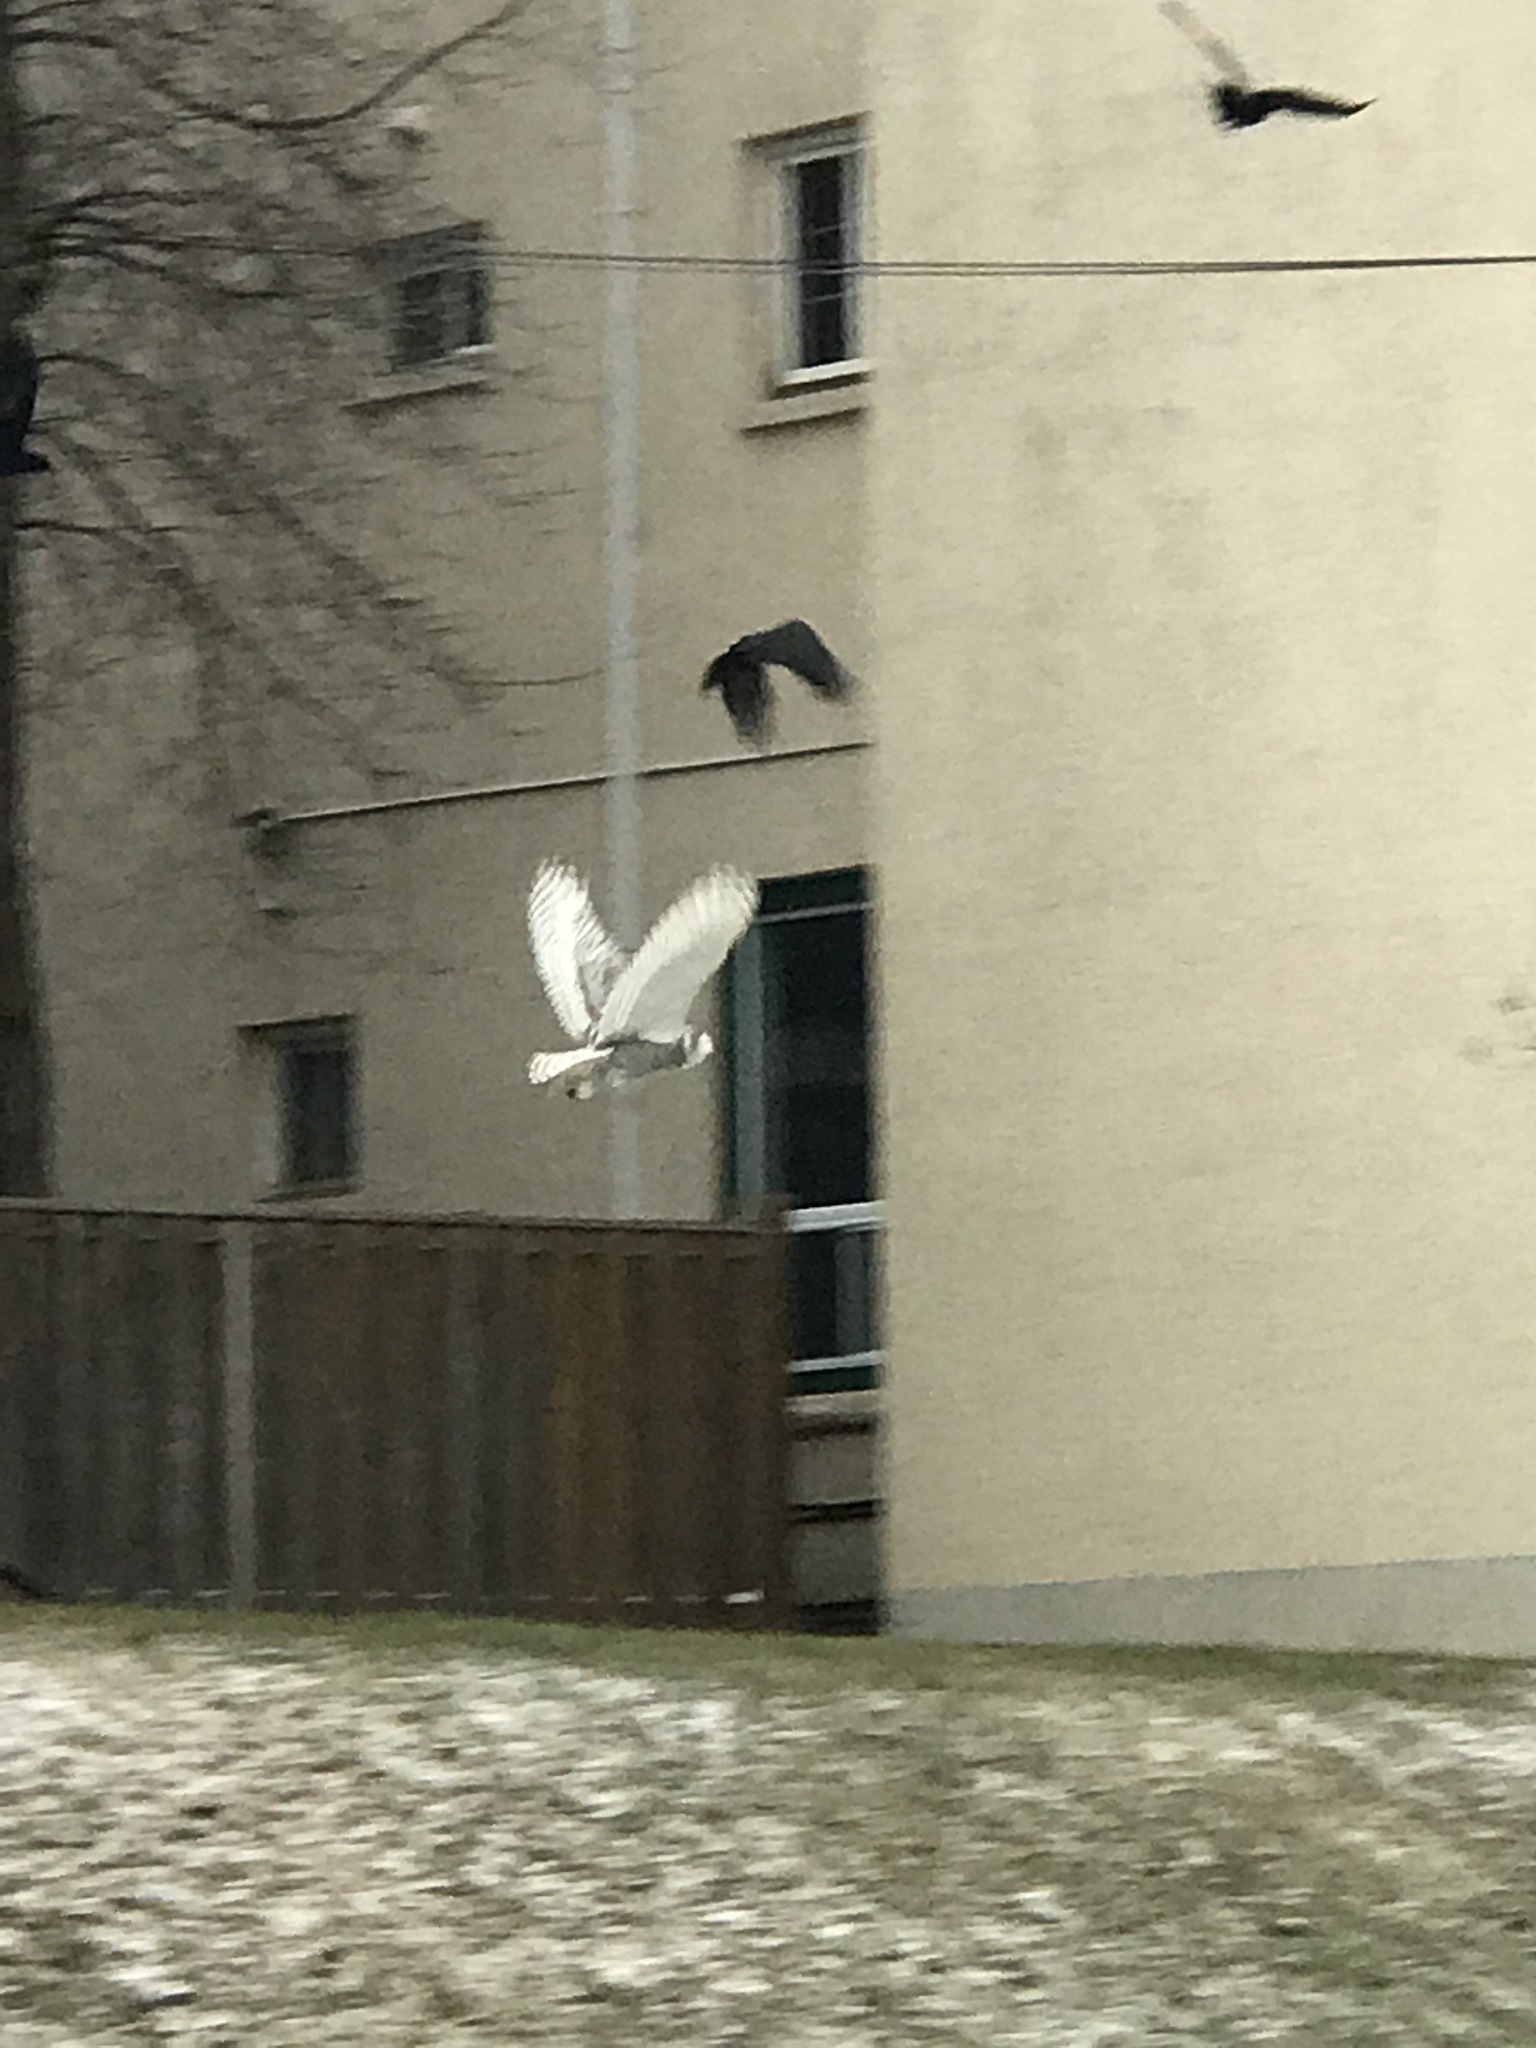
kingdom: Animalia
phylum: Chordata
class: Aves
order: Strigiformes
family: Strigidae
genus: Bubo
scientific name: Bubo scandiacus
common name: Snowy owl
